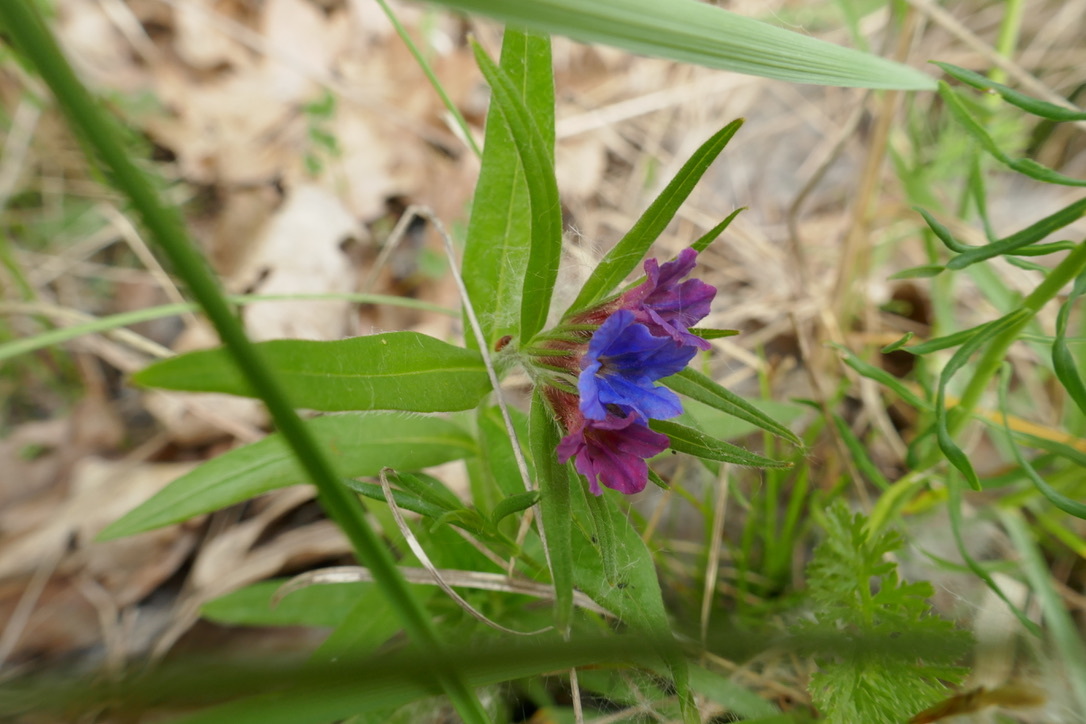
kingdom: Plantae
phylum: Tracheophyta
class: Magnoliopsida
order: Boraginales
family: Boraginaceae
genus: Aegonychon
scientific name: Aegonychon purpurocaeruleum
